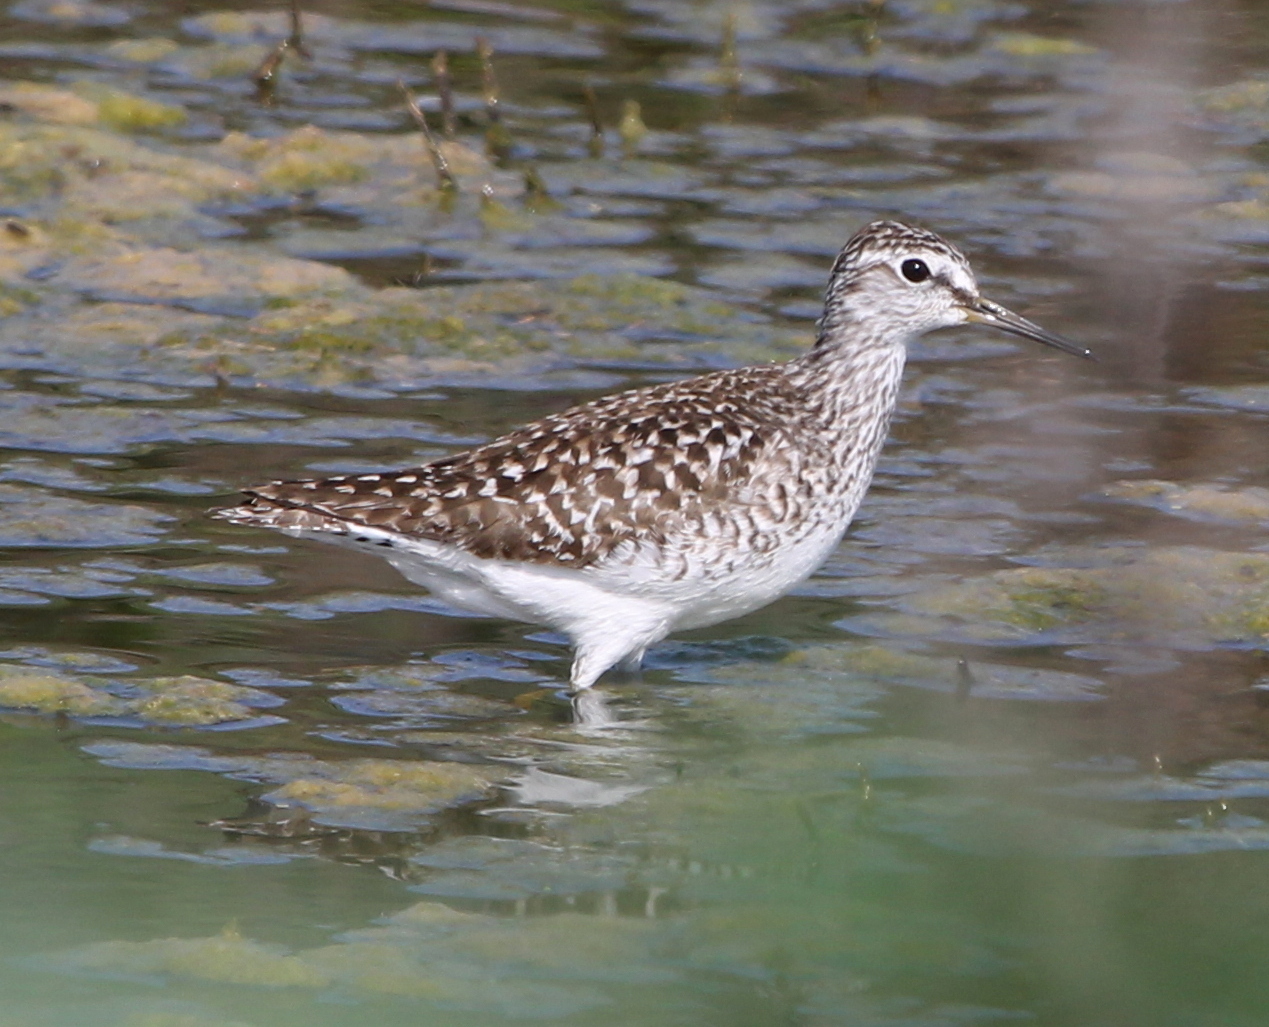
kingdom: Animalia
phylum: Chordata
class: Aves
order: Charadriiformes
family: Scolopacidae
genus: Tringa
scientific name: Tringa glareola
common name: Wood sandpiper
